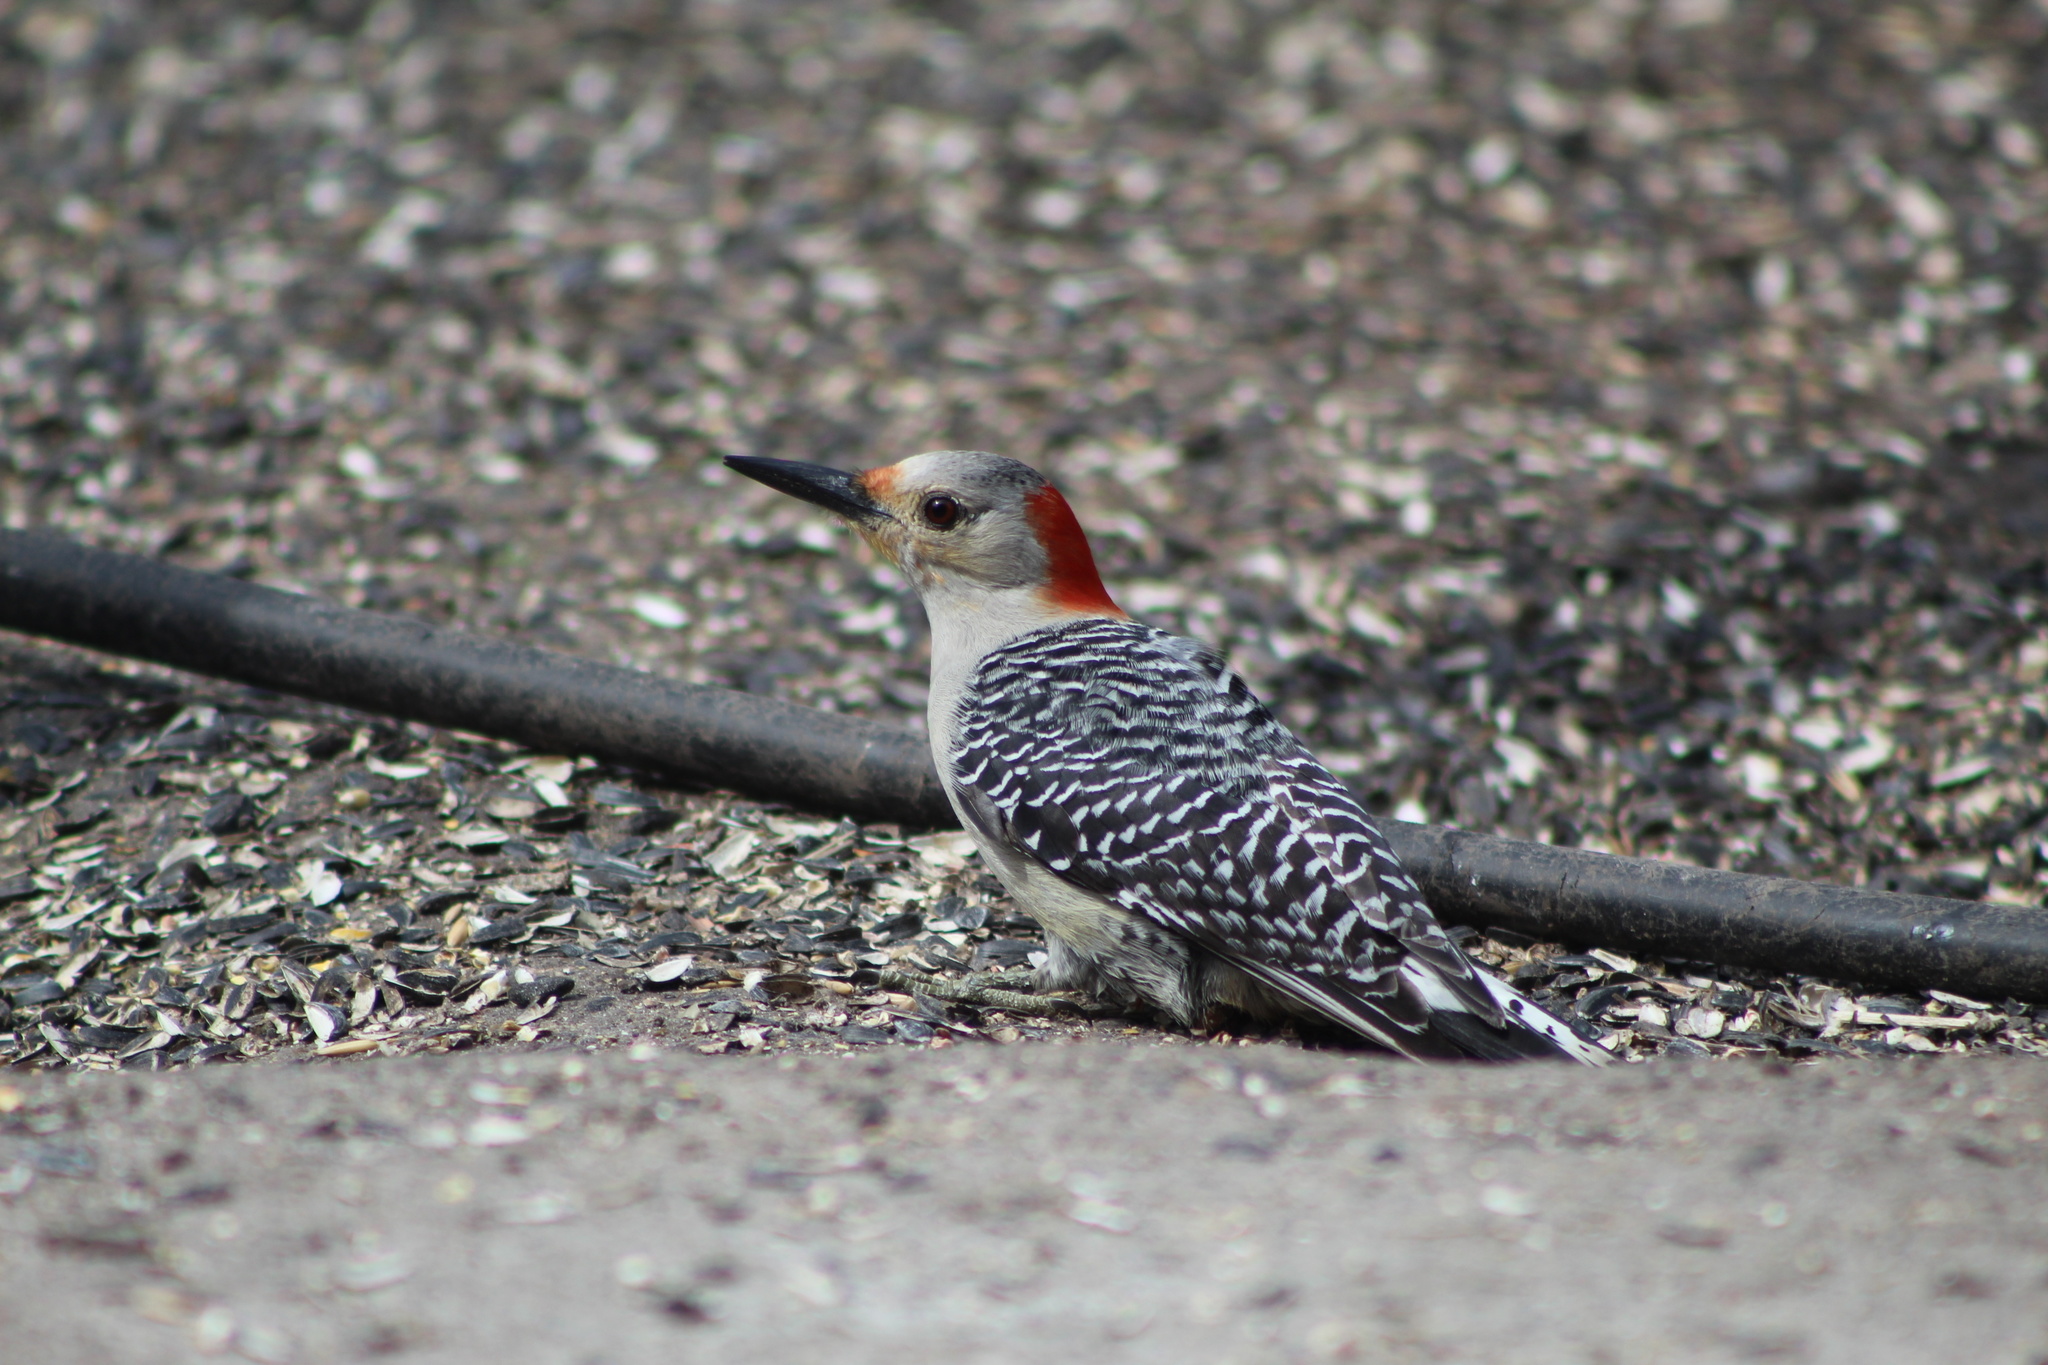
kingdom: Animalia
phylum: Chordata
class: Aves
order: Piciformes
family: Picidae
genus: Melanerpes
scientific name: Melanerpes carolinus
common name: Red-bellied woodpecker
